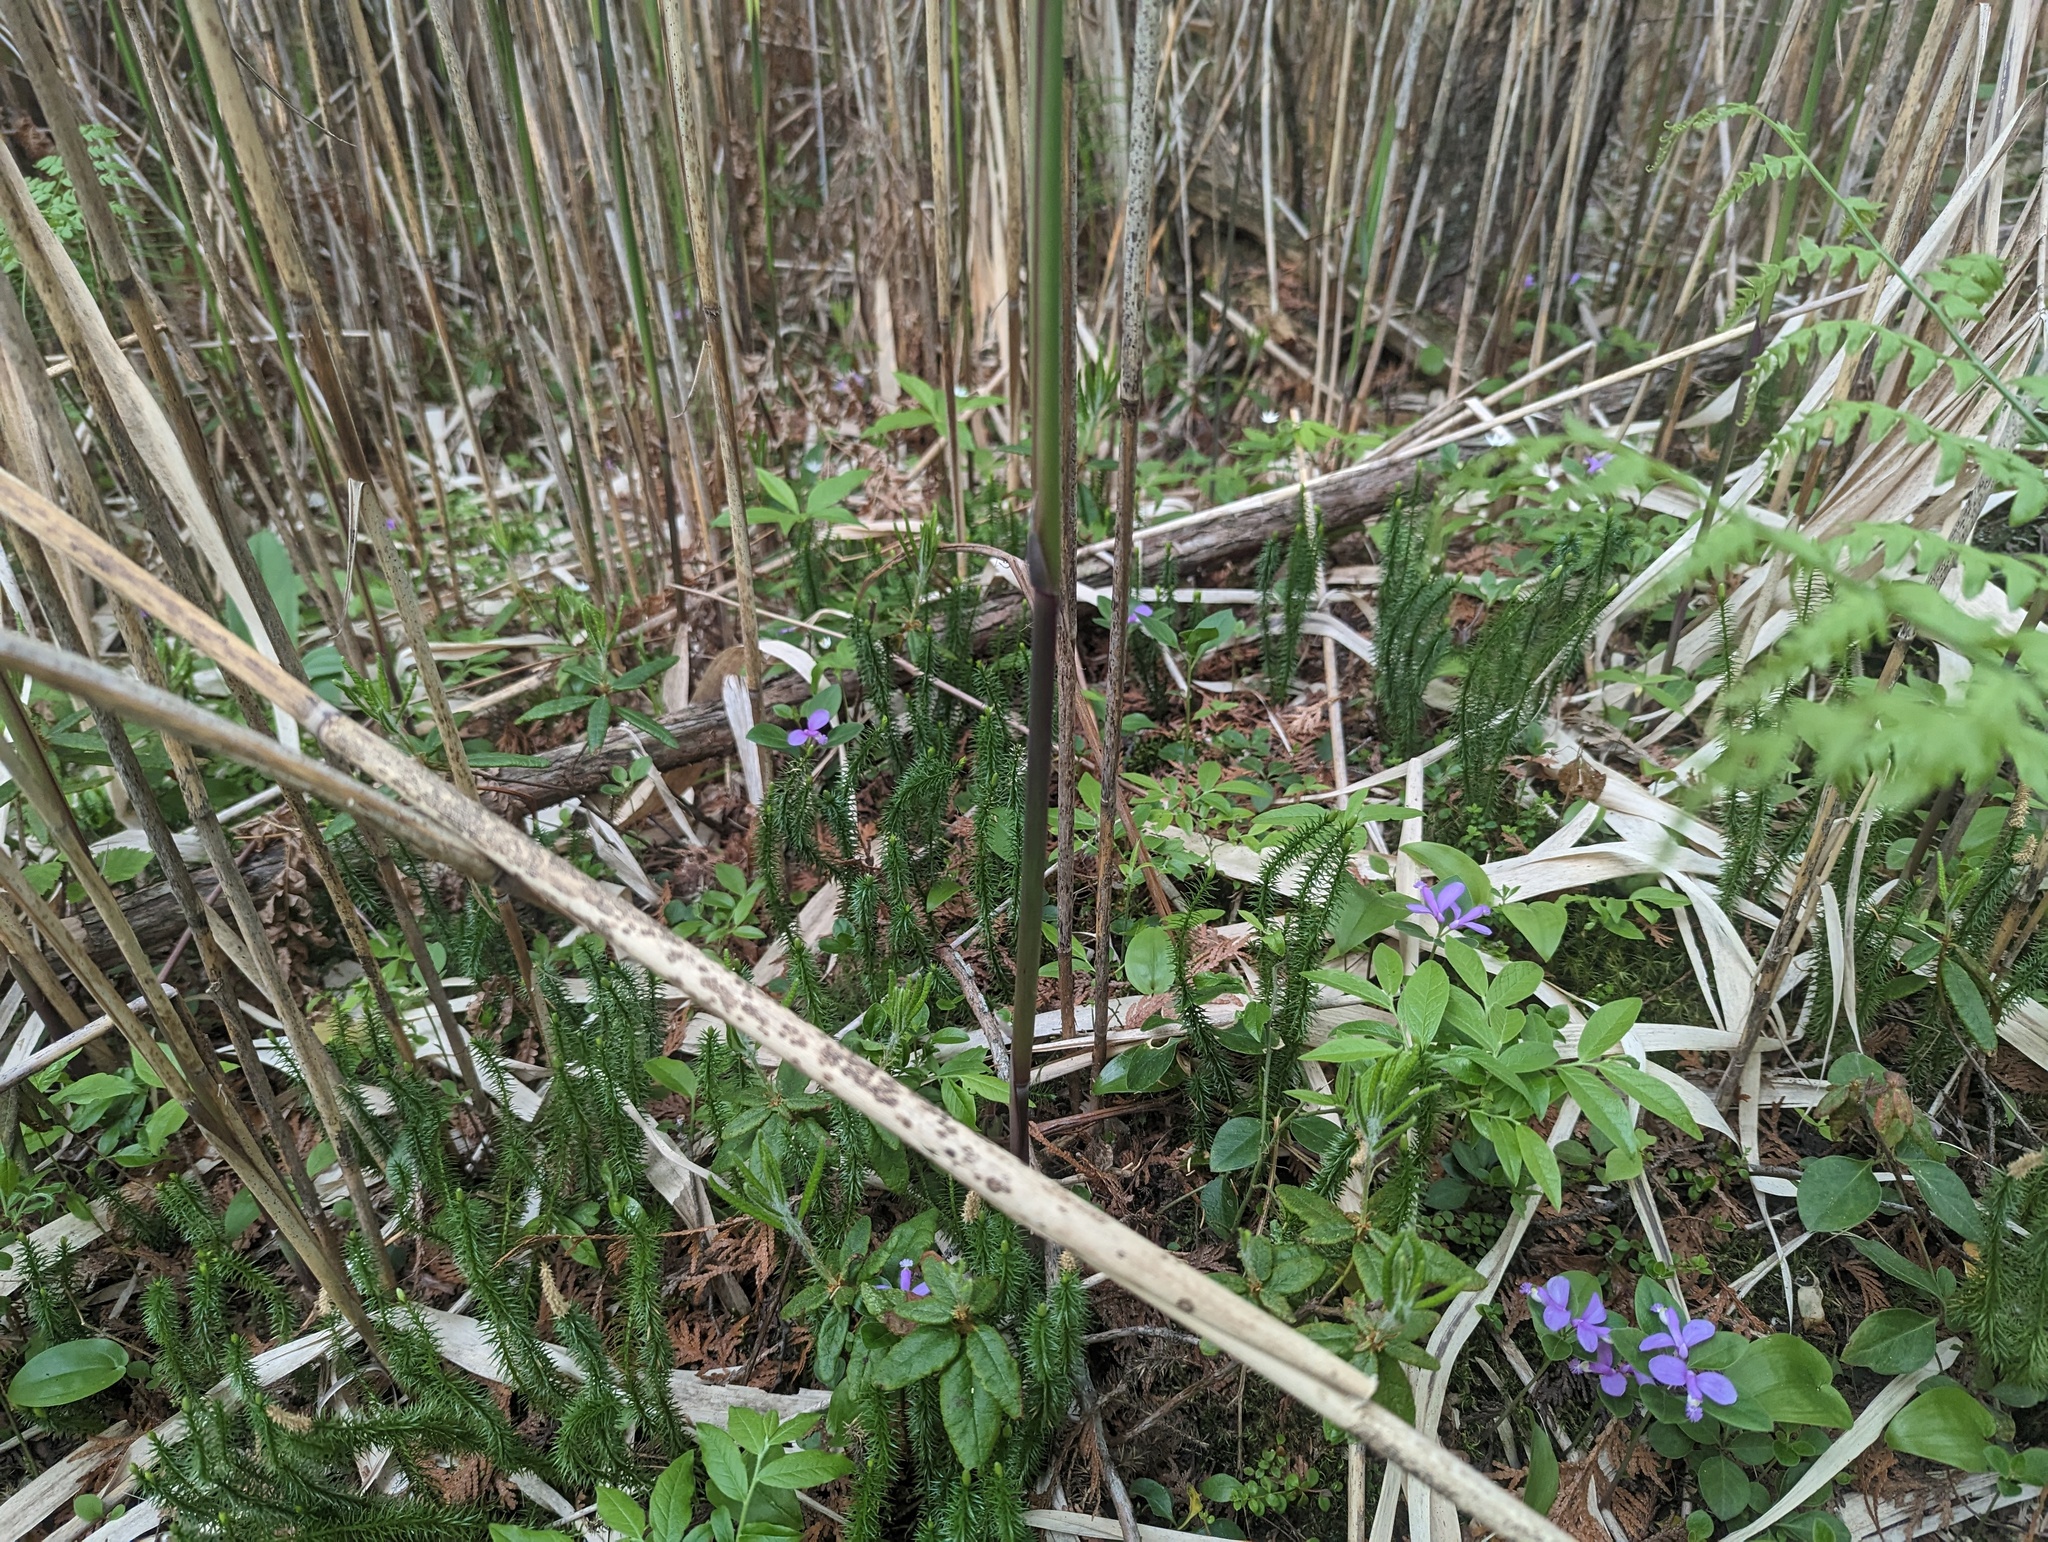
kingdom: Plantae
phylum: Tracheophyta
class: Liliopsida
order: Poales
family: Poaceae
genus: Phragmites
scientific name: Phragmites australis
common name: Common reed
